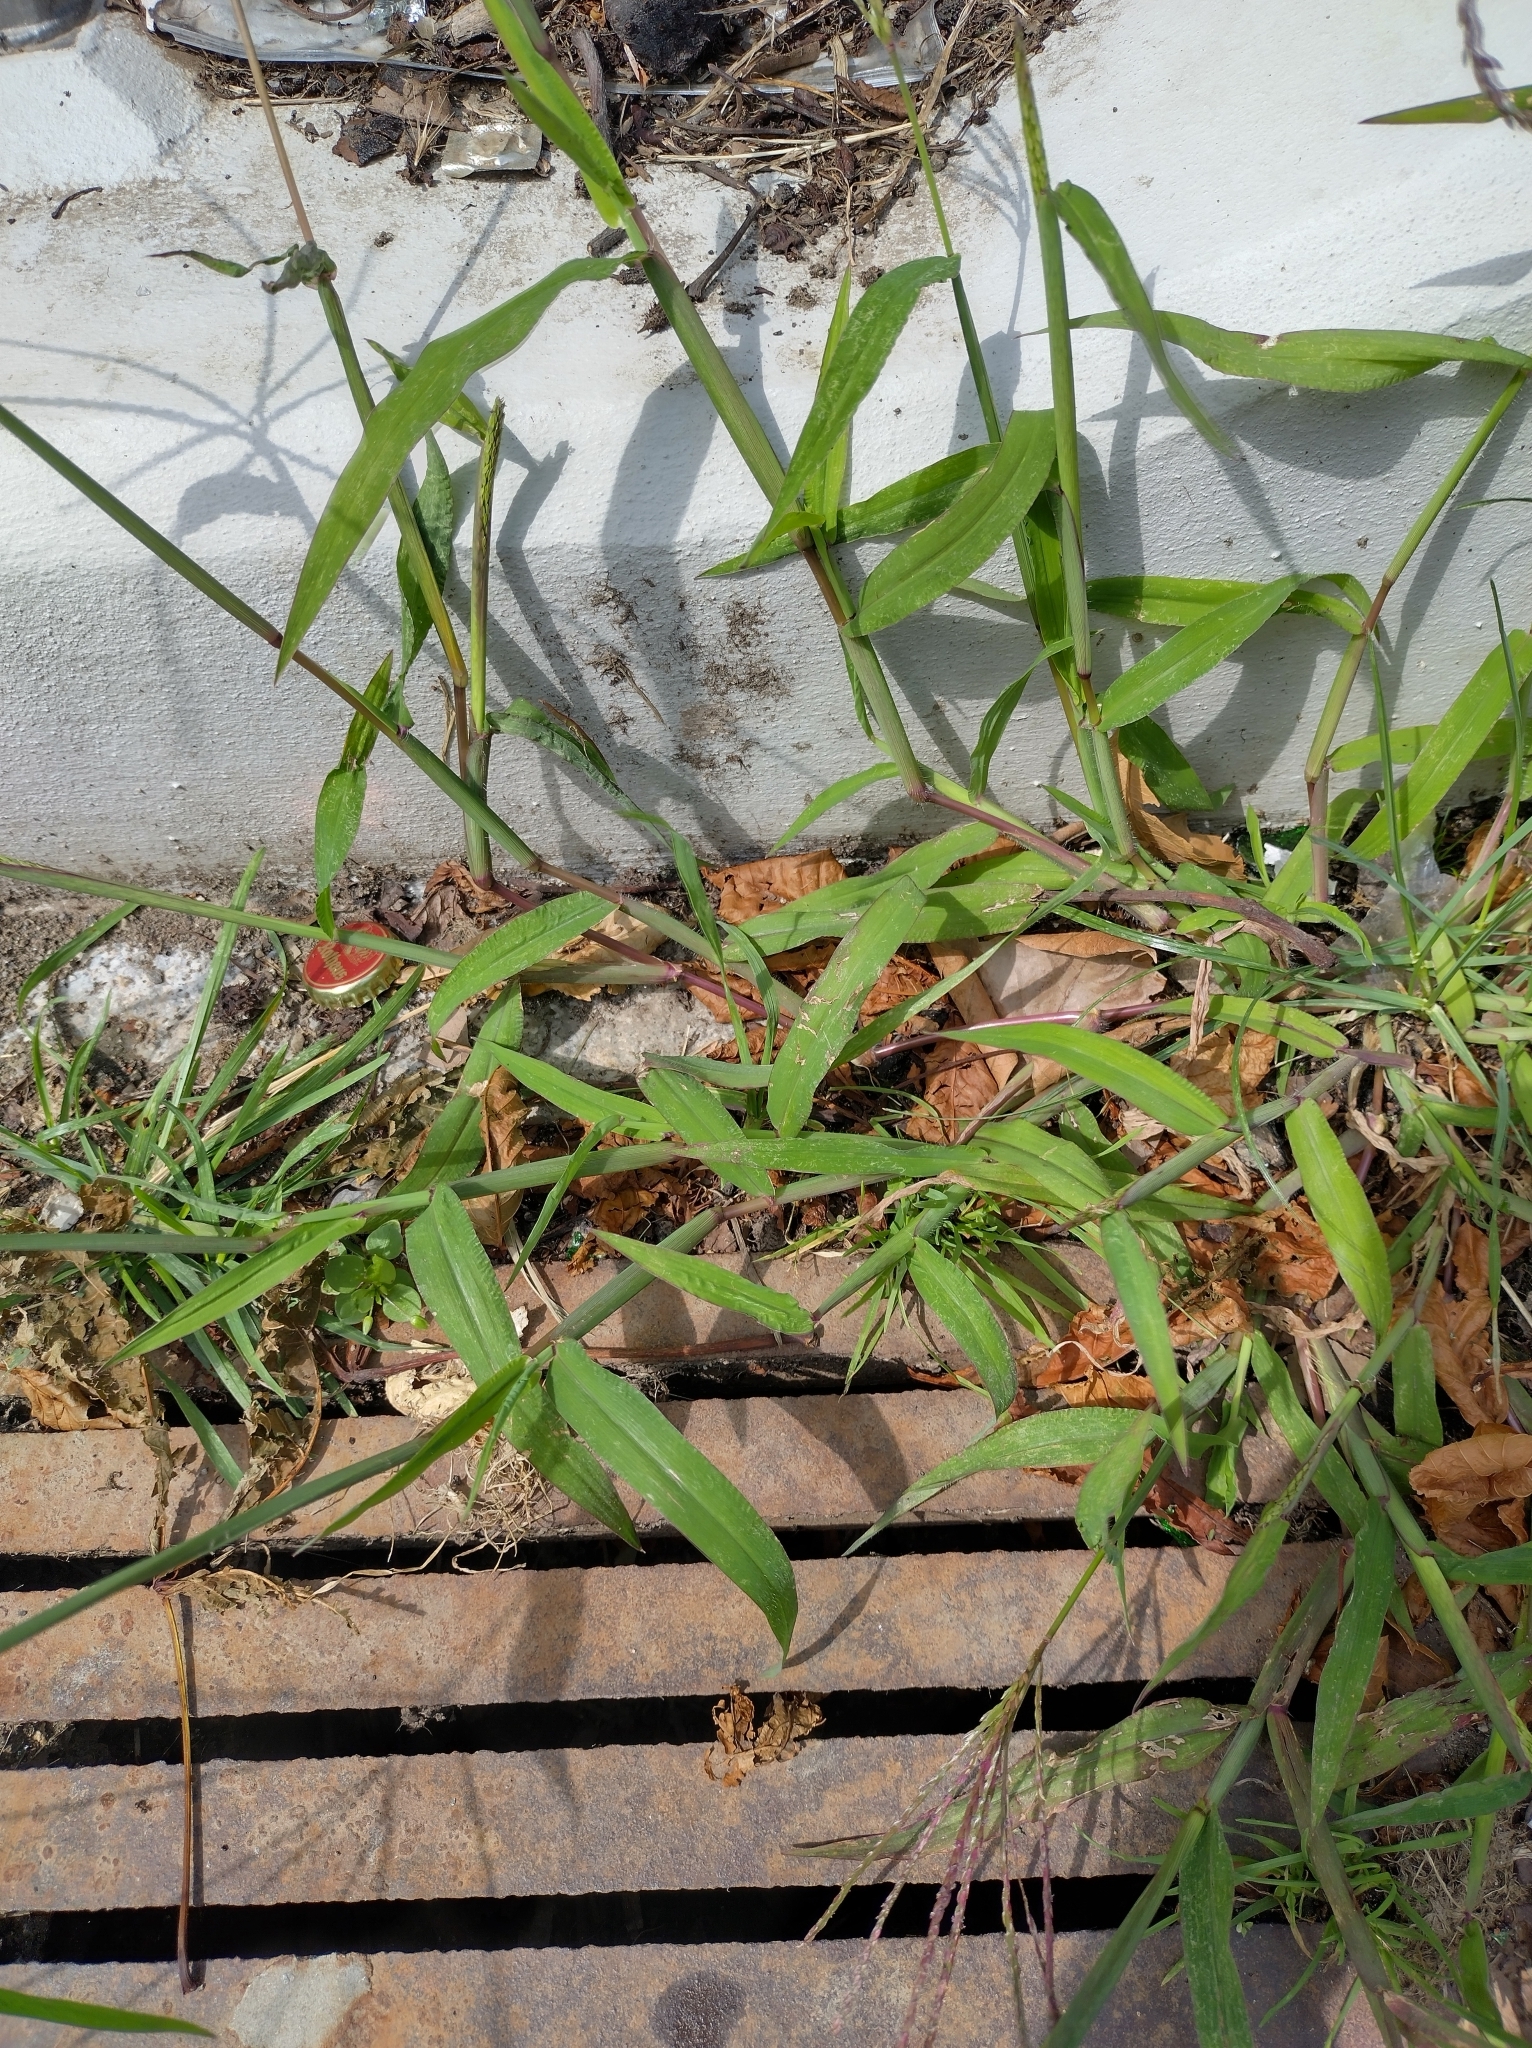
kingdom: Plantae
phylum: Tracheophyta
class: Liliopsida
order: Poales
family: Poaceae
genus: Digitaria
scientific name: Digitaria sanguinalis
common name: Hairy crabgrass
